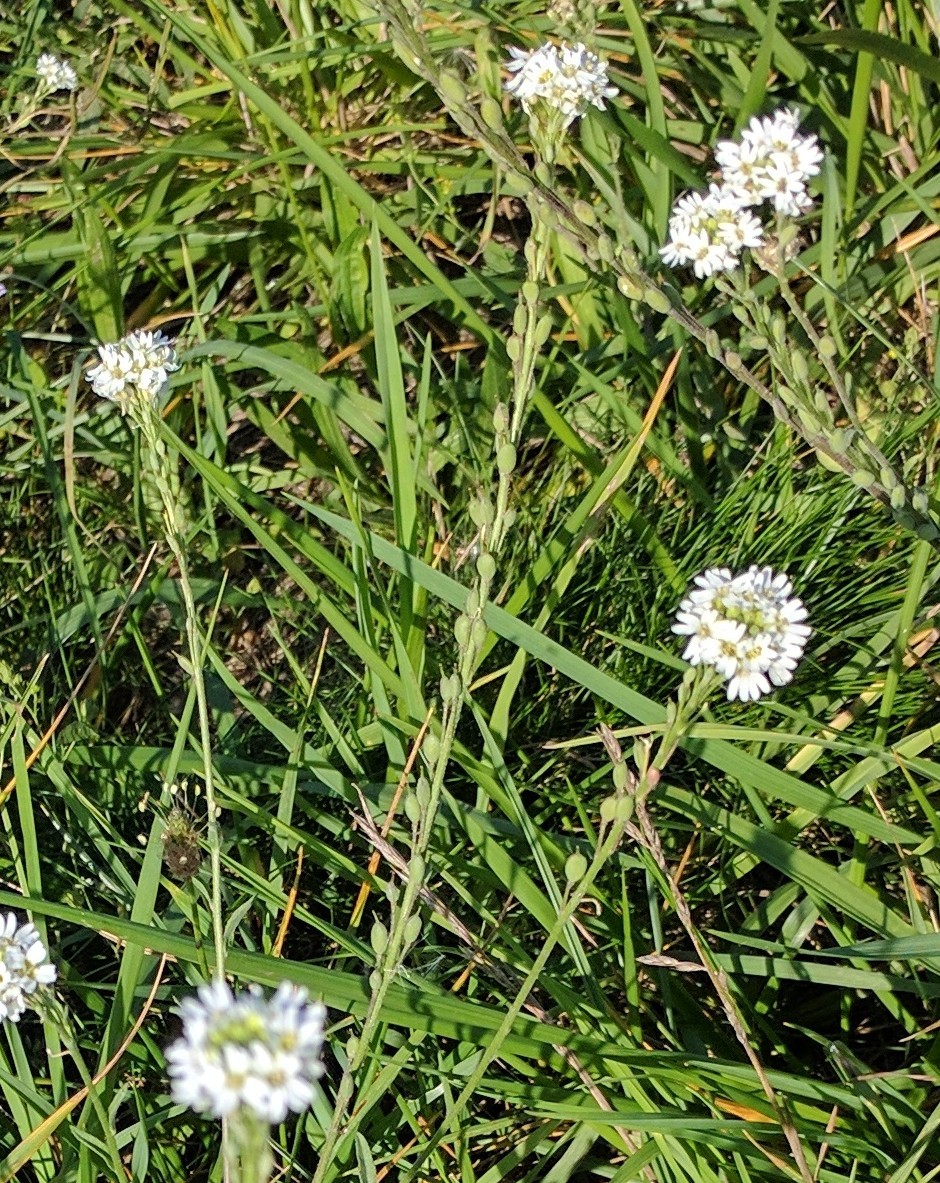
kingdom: Plantae
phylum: Tracheophyta
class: Magnoliopsida
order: Brassicales
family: Brassicaceae
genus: Berteroa
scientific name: Berteroa incana
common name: Hoary alison
